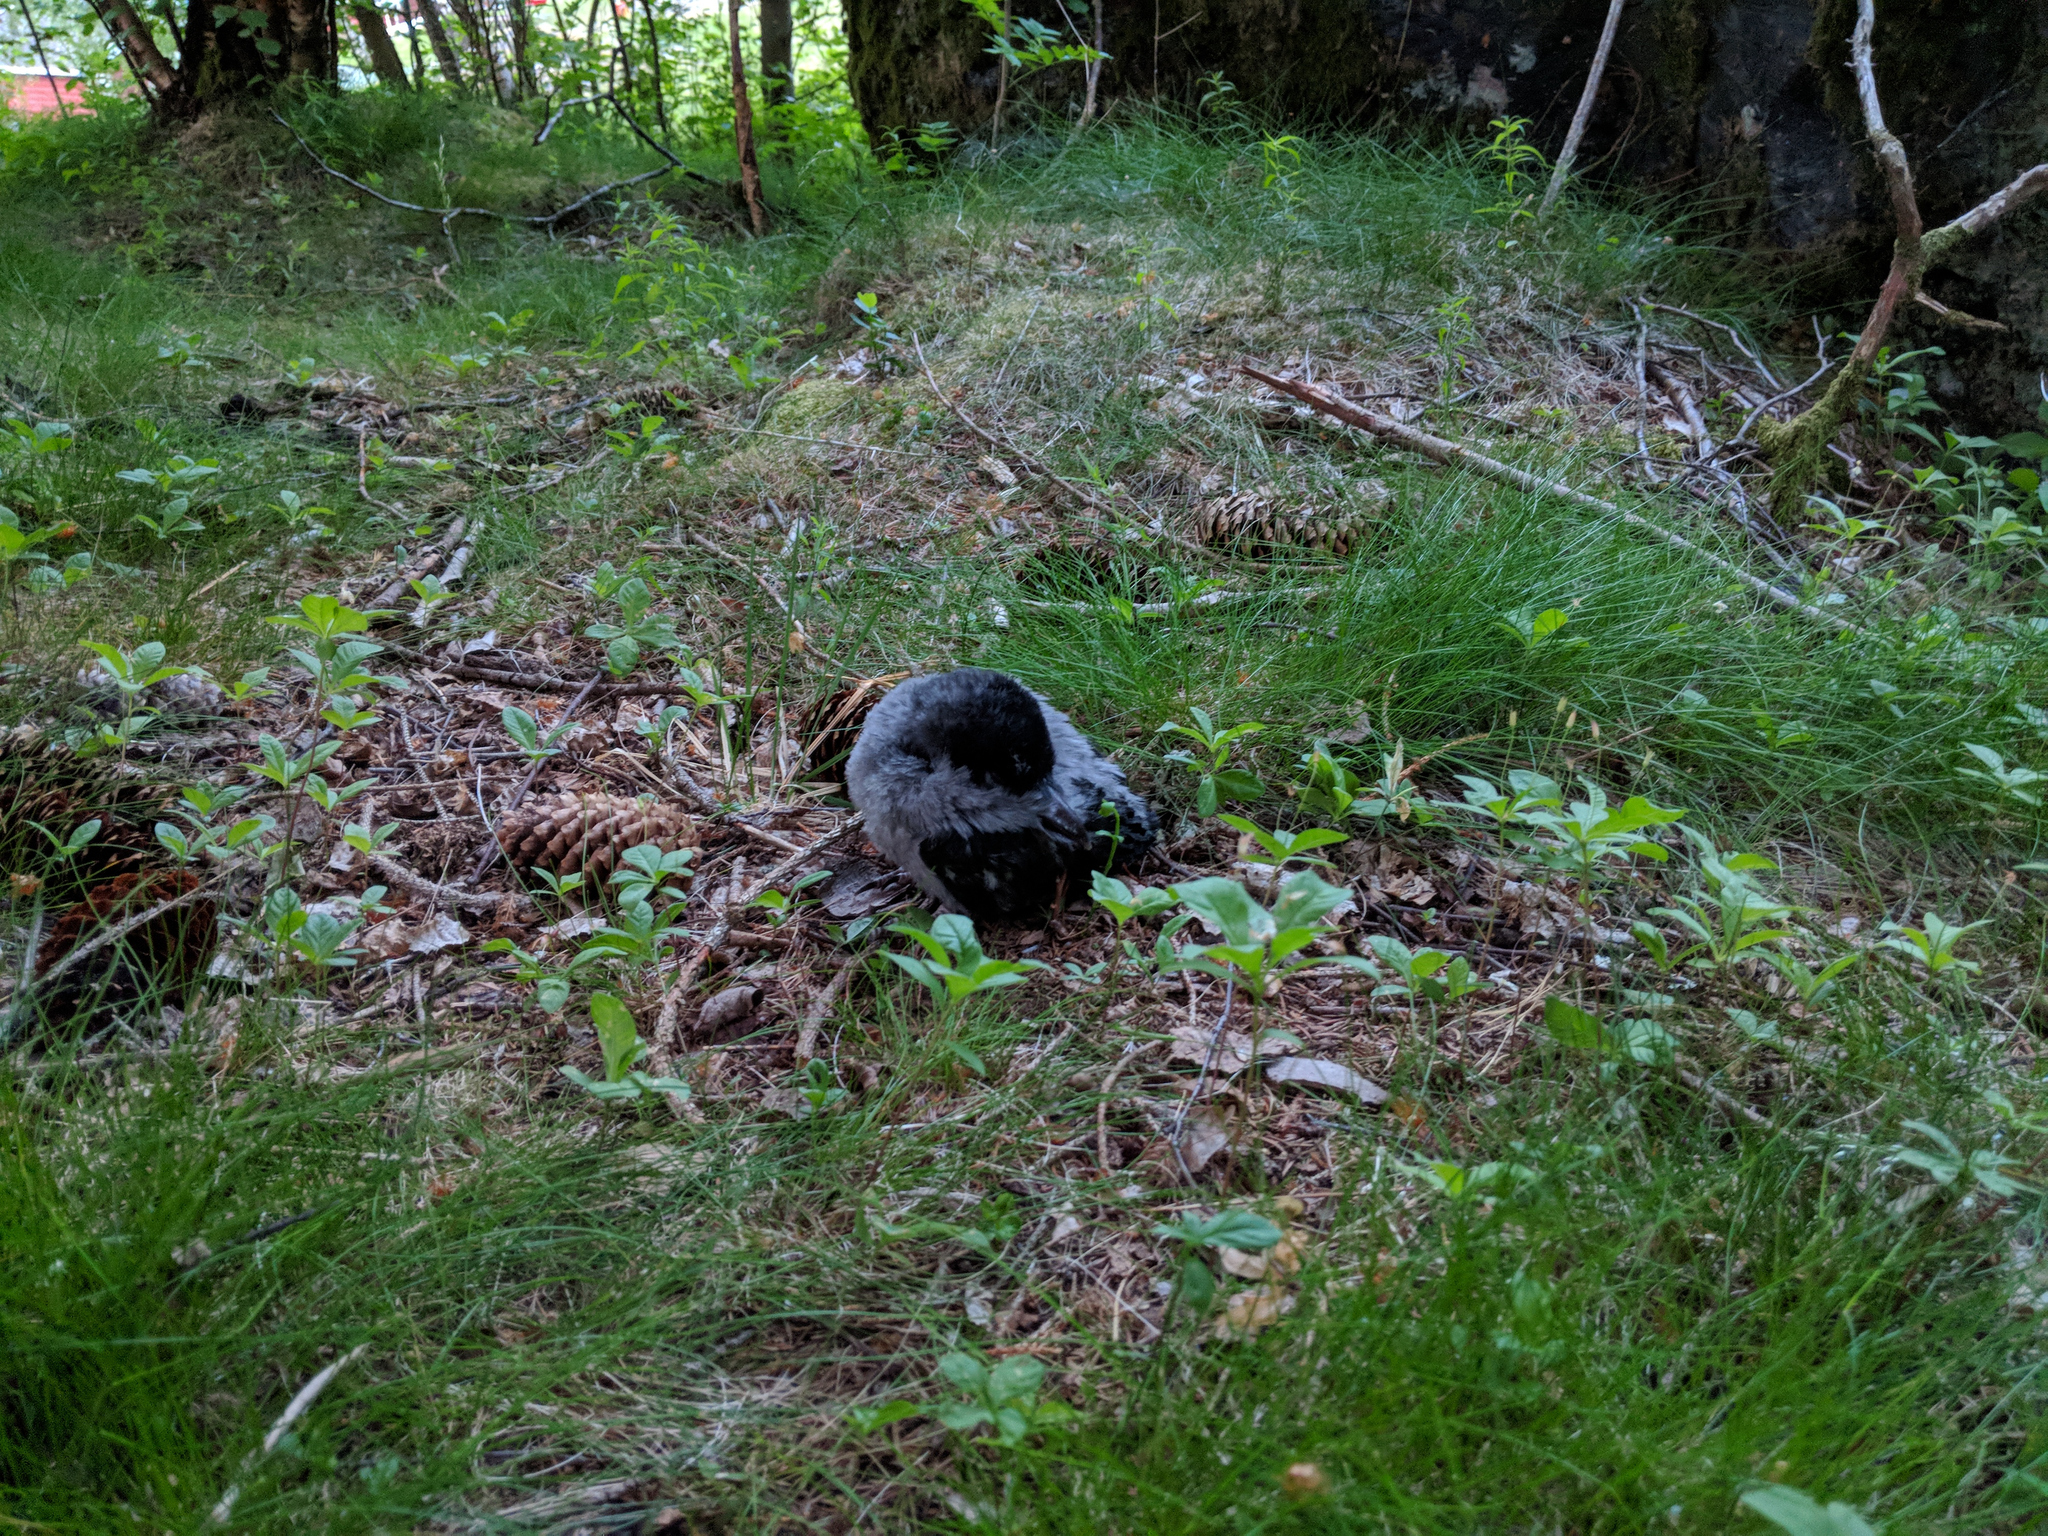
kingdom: Animalia
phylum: Chordata
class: Aves
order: Passeriformes
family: Corvidae
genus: Corvus
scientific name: Corvus cornix
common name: Hooded crow
